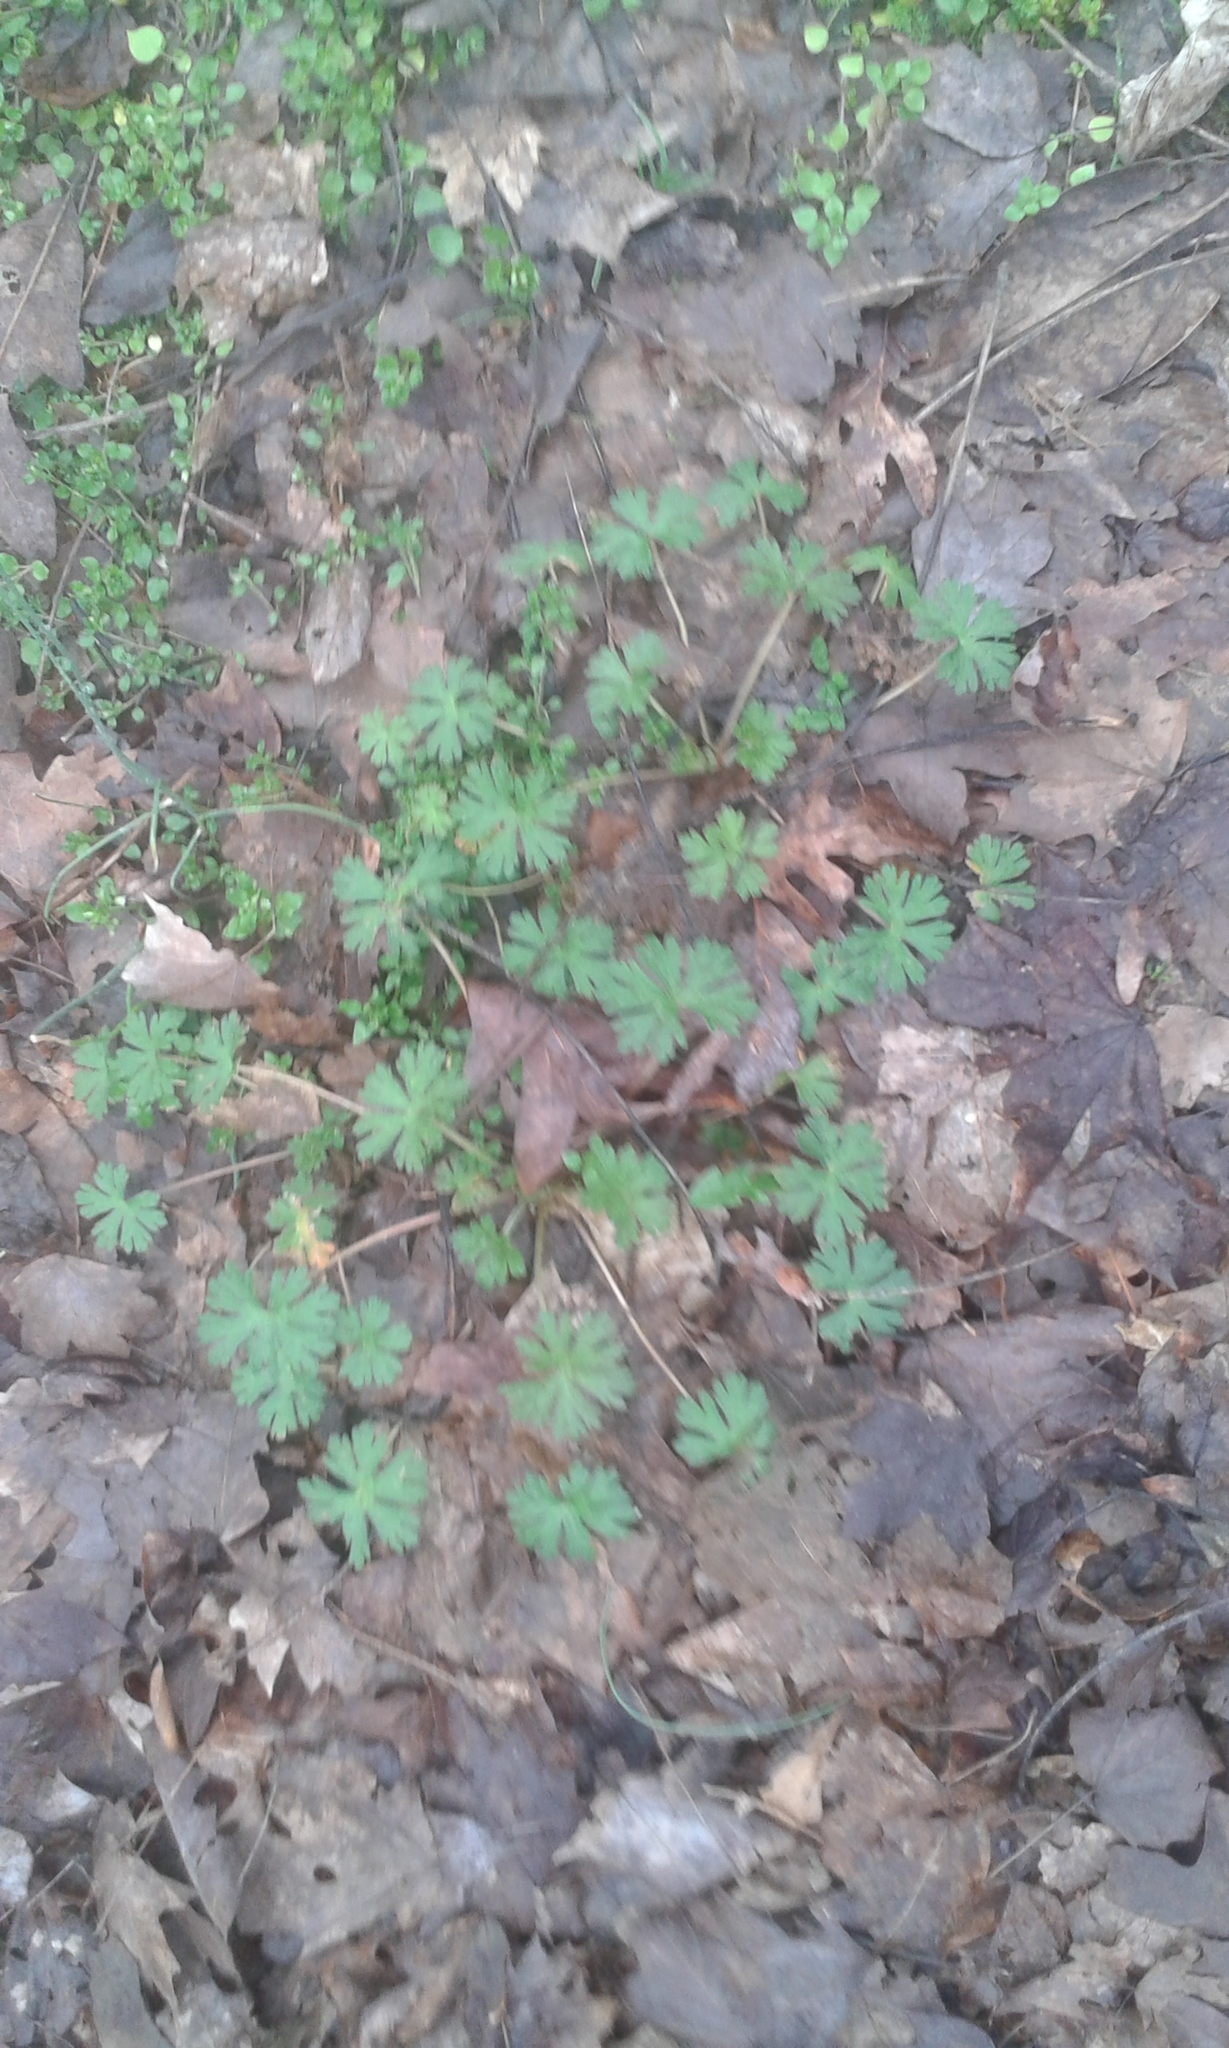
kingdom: Plantae
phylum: Tracheophyta
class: Magnoliopsida
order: Geraniales
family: Geraniaceae
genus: Geranium
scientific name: Geranium carolinianum
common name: Carolina crane's-bill
